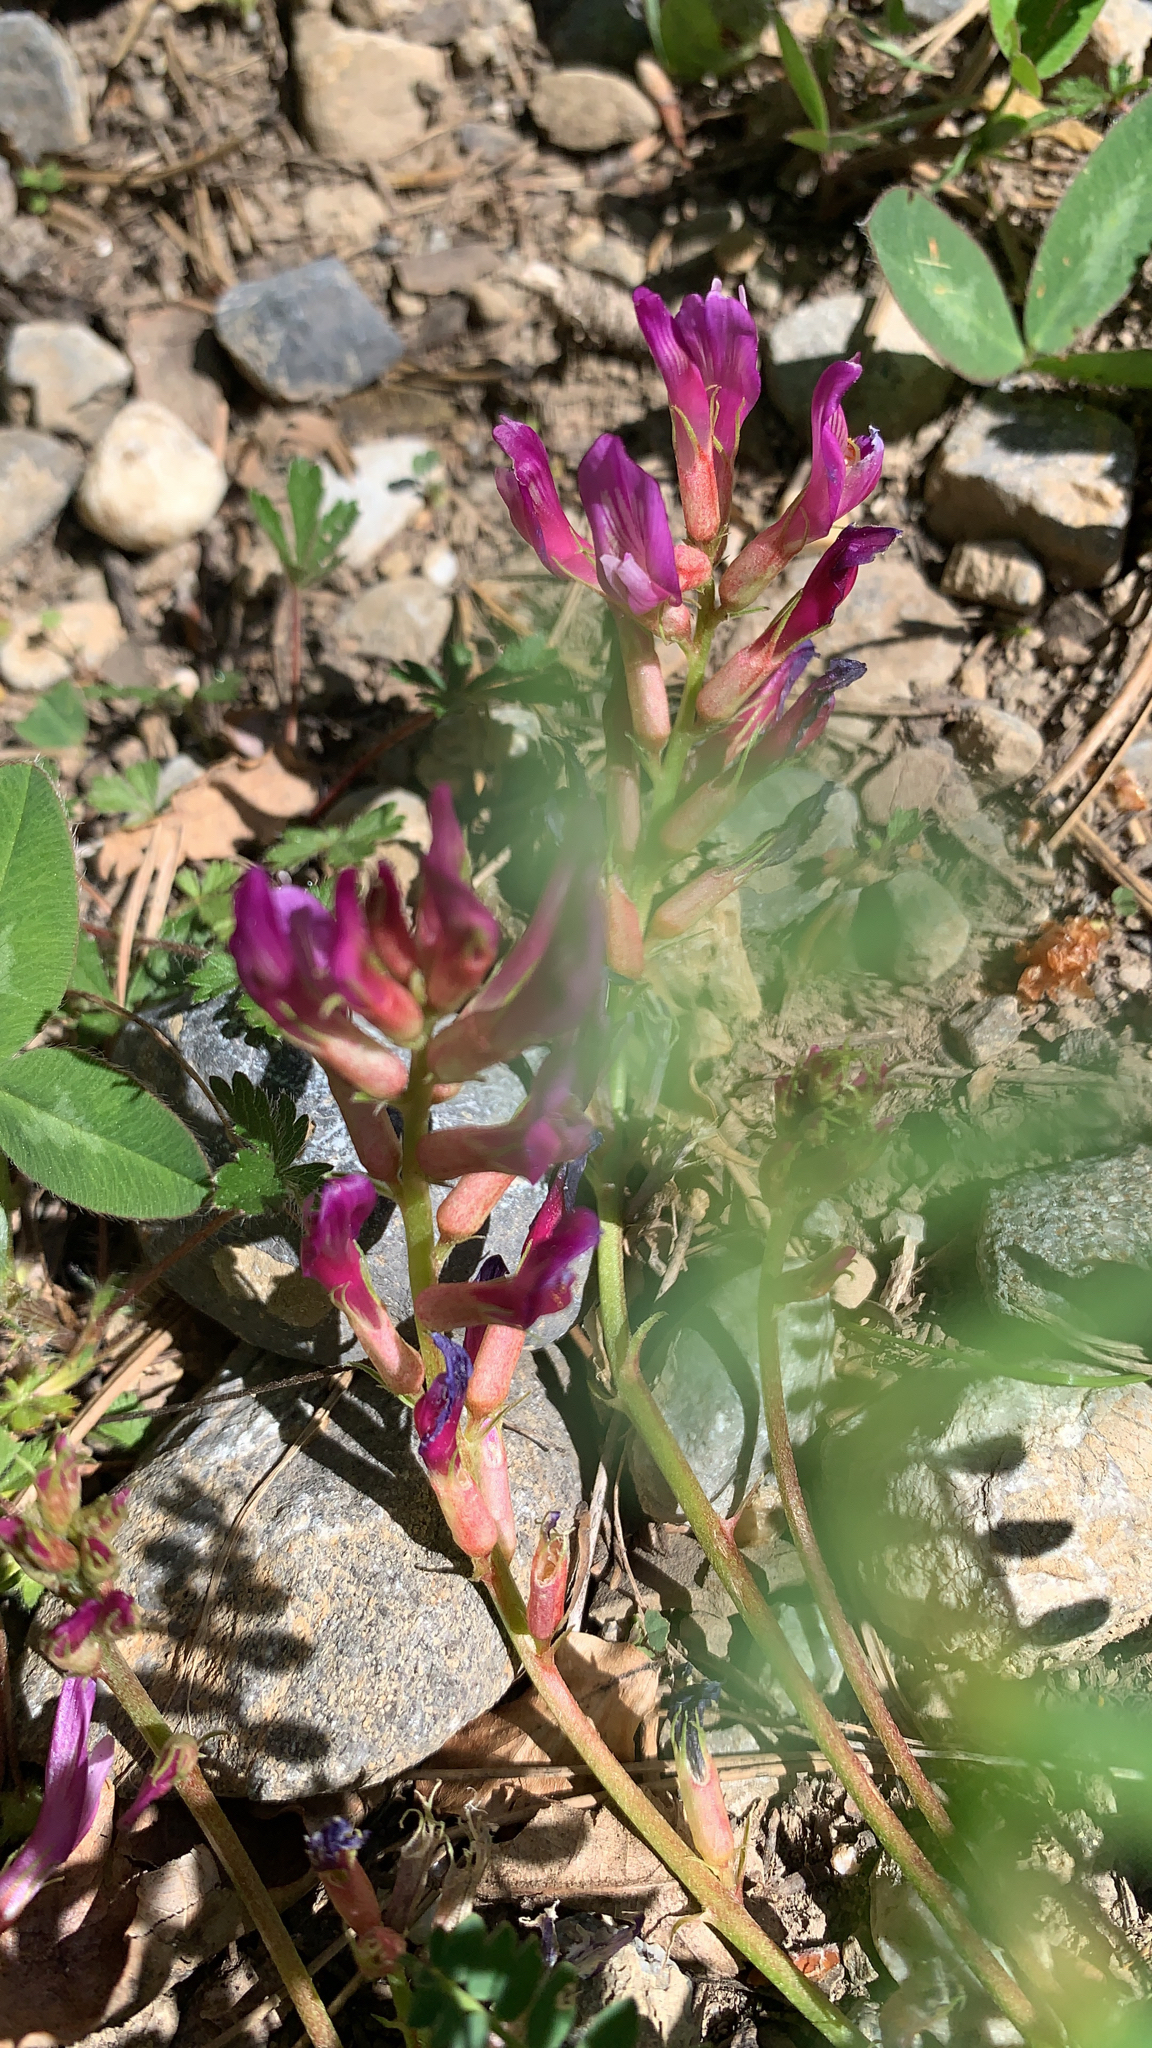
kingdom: Plantae
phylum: Tracheophyta
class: Magnoliopsida
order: Fabales
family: Fabaceae
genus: Astragalus
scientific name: Astragalus monspessulanus
